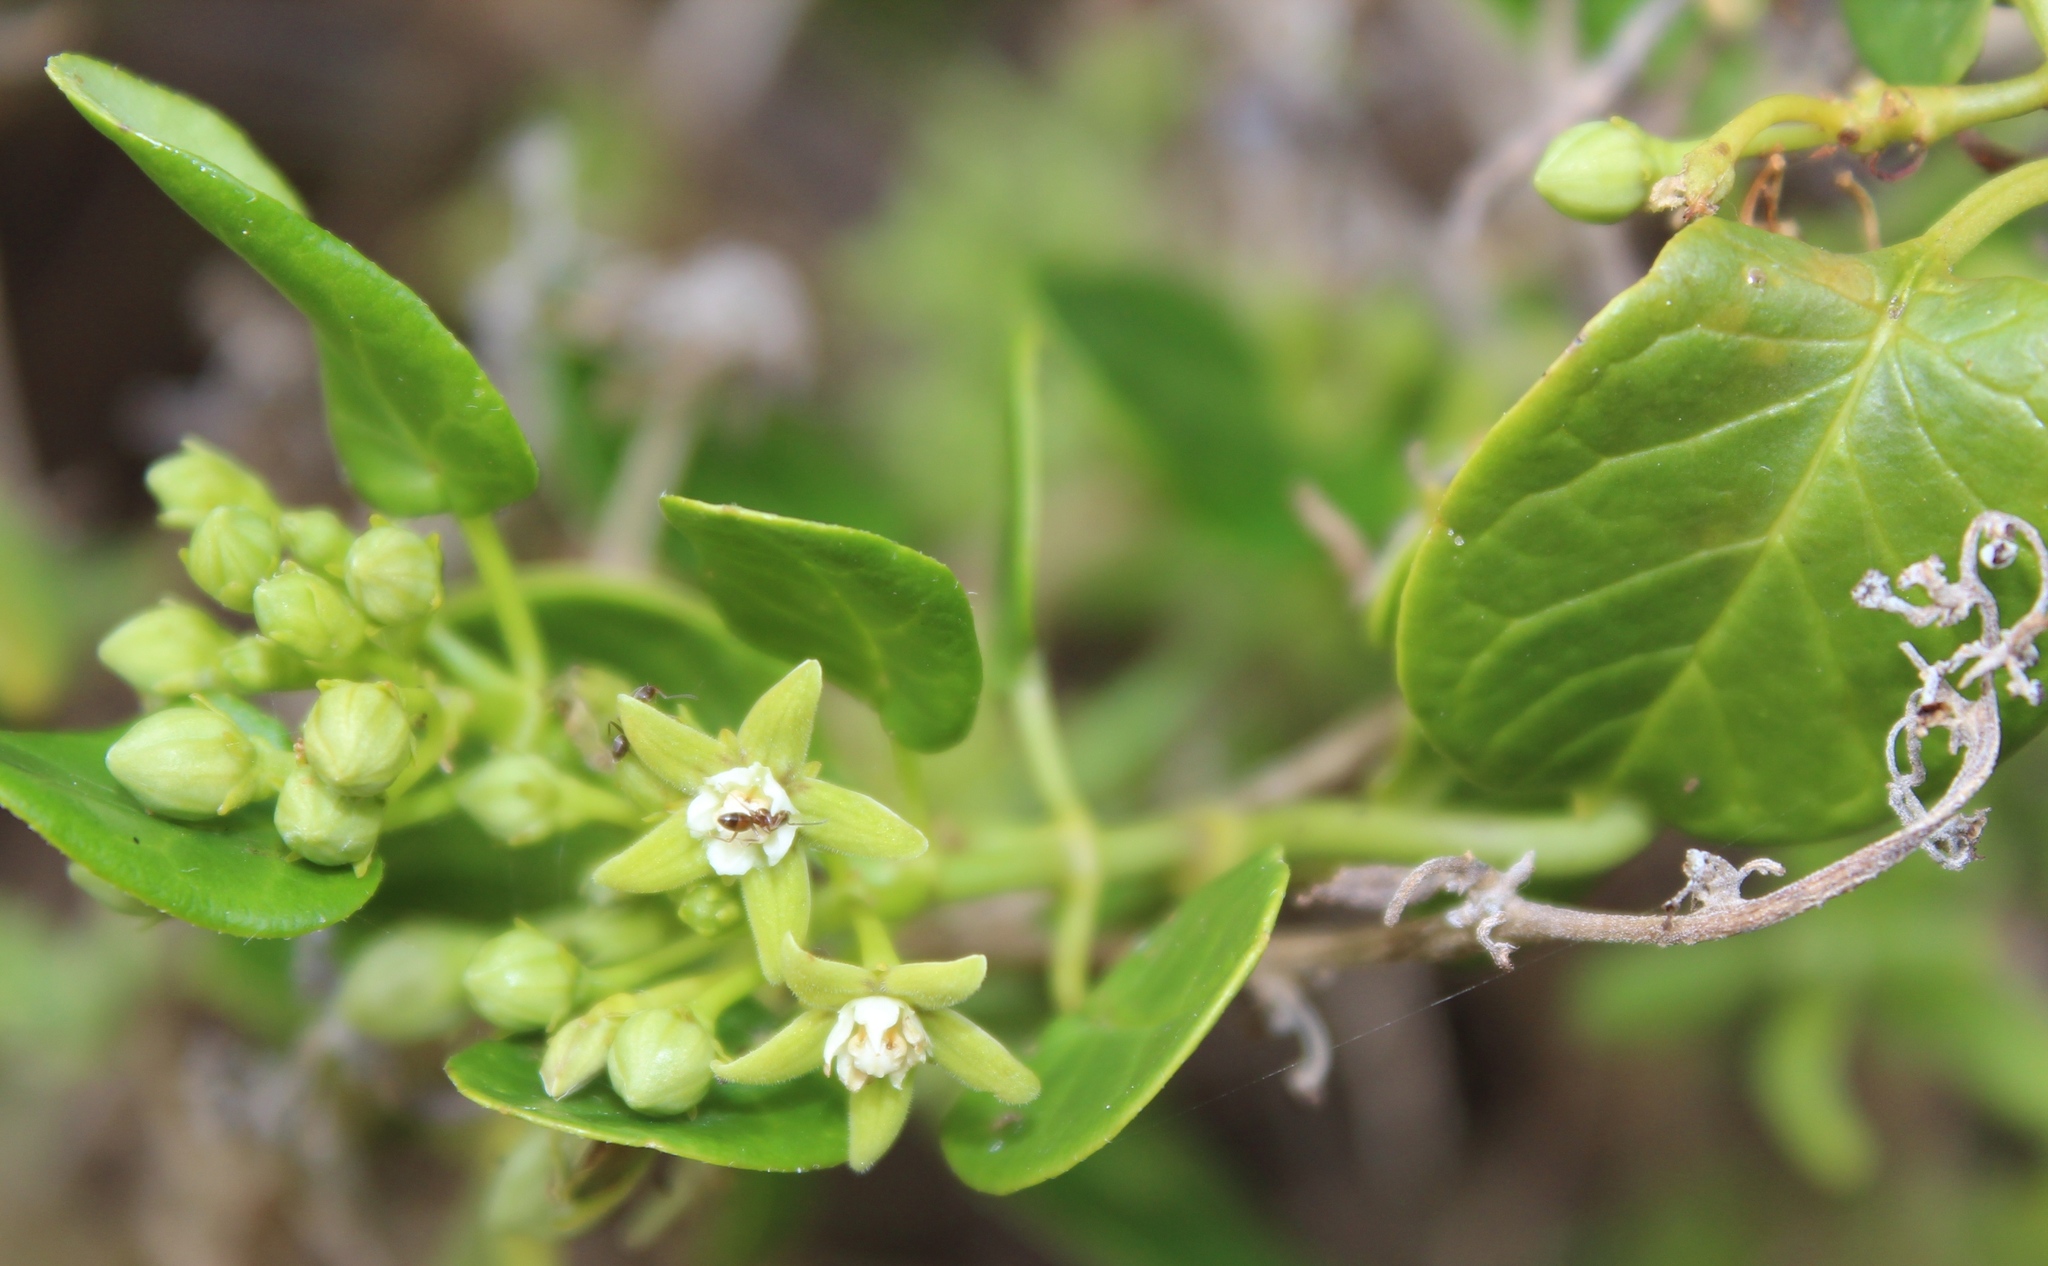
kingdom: Plantae
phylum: Tracheophyta
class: Magnoliopsida
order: Gentianales
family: Apocynaceae
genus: Cynanchum
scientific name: Cynanchum obtusifolium
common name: Monkey-rope
